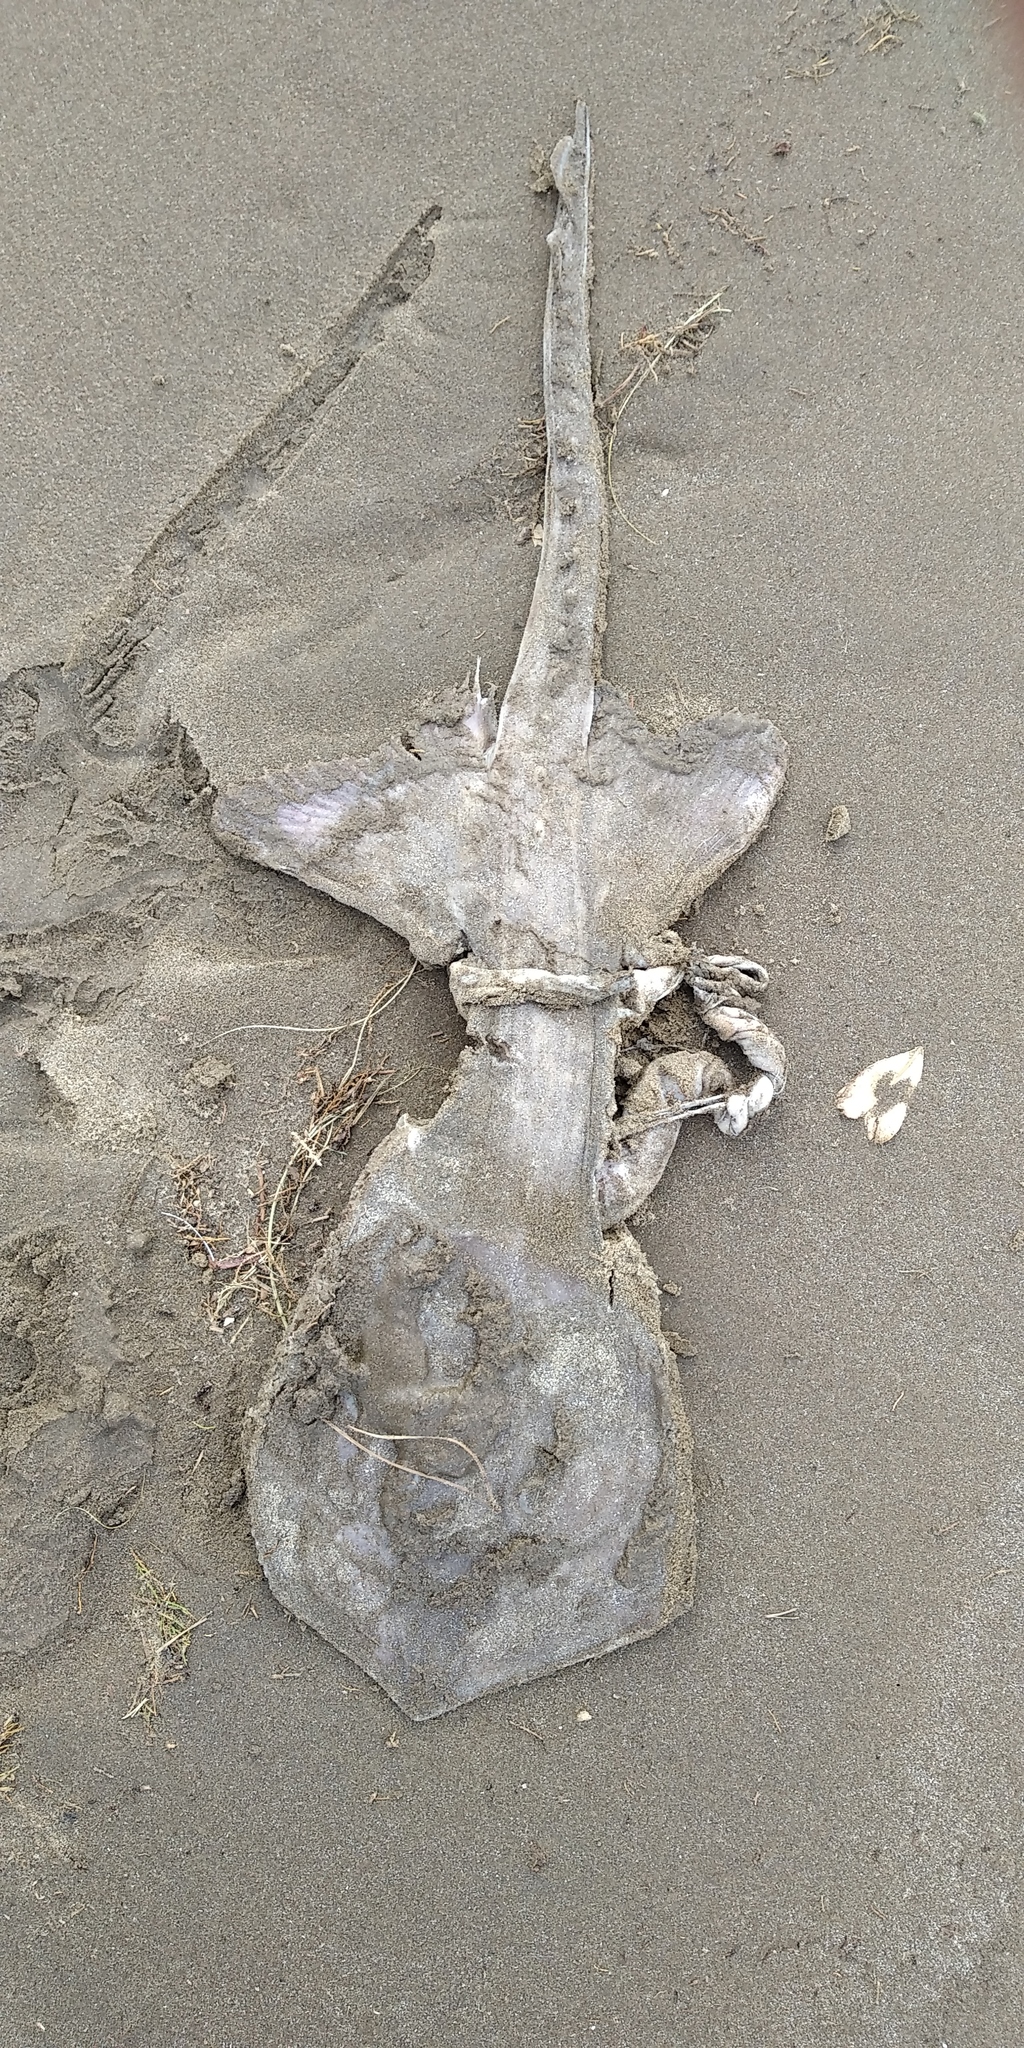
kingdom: Animalia
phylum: Chordata
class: Elasmobranchii
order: Rajiformes
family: Arhynchobatidae
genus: Sympterygia
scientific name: Sympterygia bonapartii
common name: Smallnose fanskate
